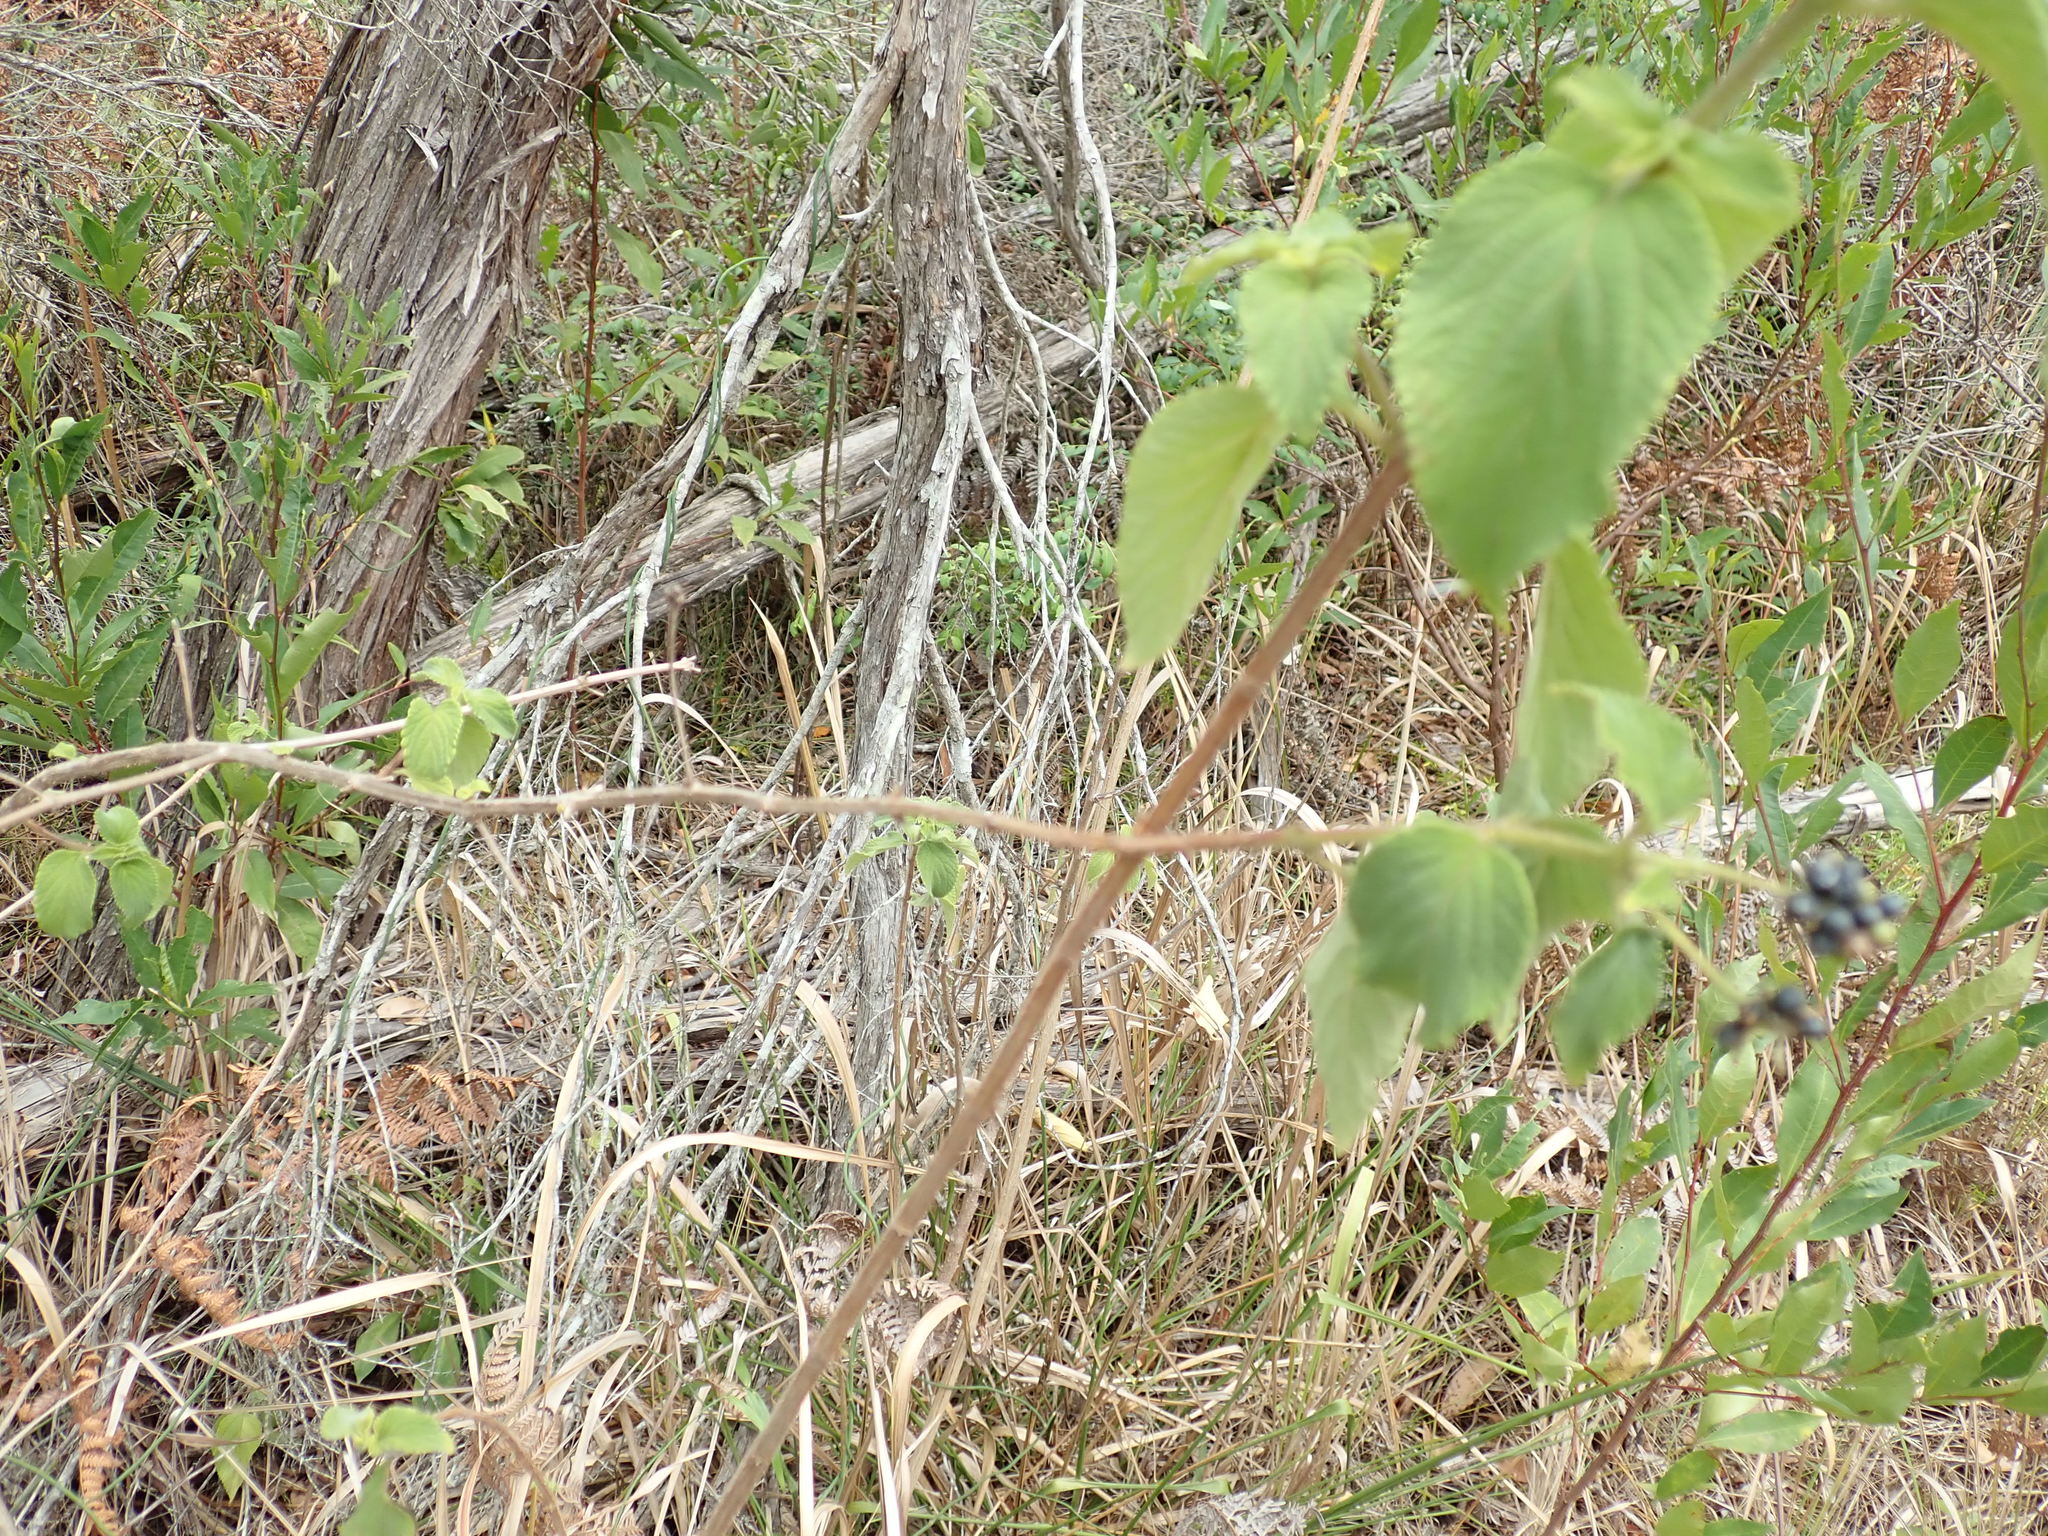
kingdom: Plantae
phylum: Tracheophyta
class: Magnoliopsida
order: Lamiales
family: Verbenaceae
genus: Lantana
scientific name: Lantana camara
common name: Lantana
